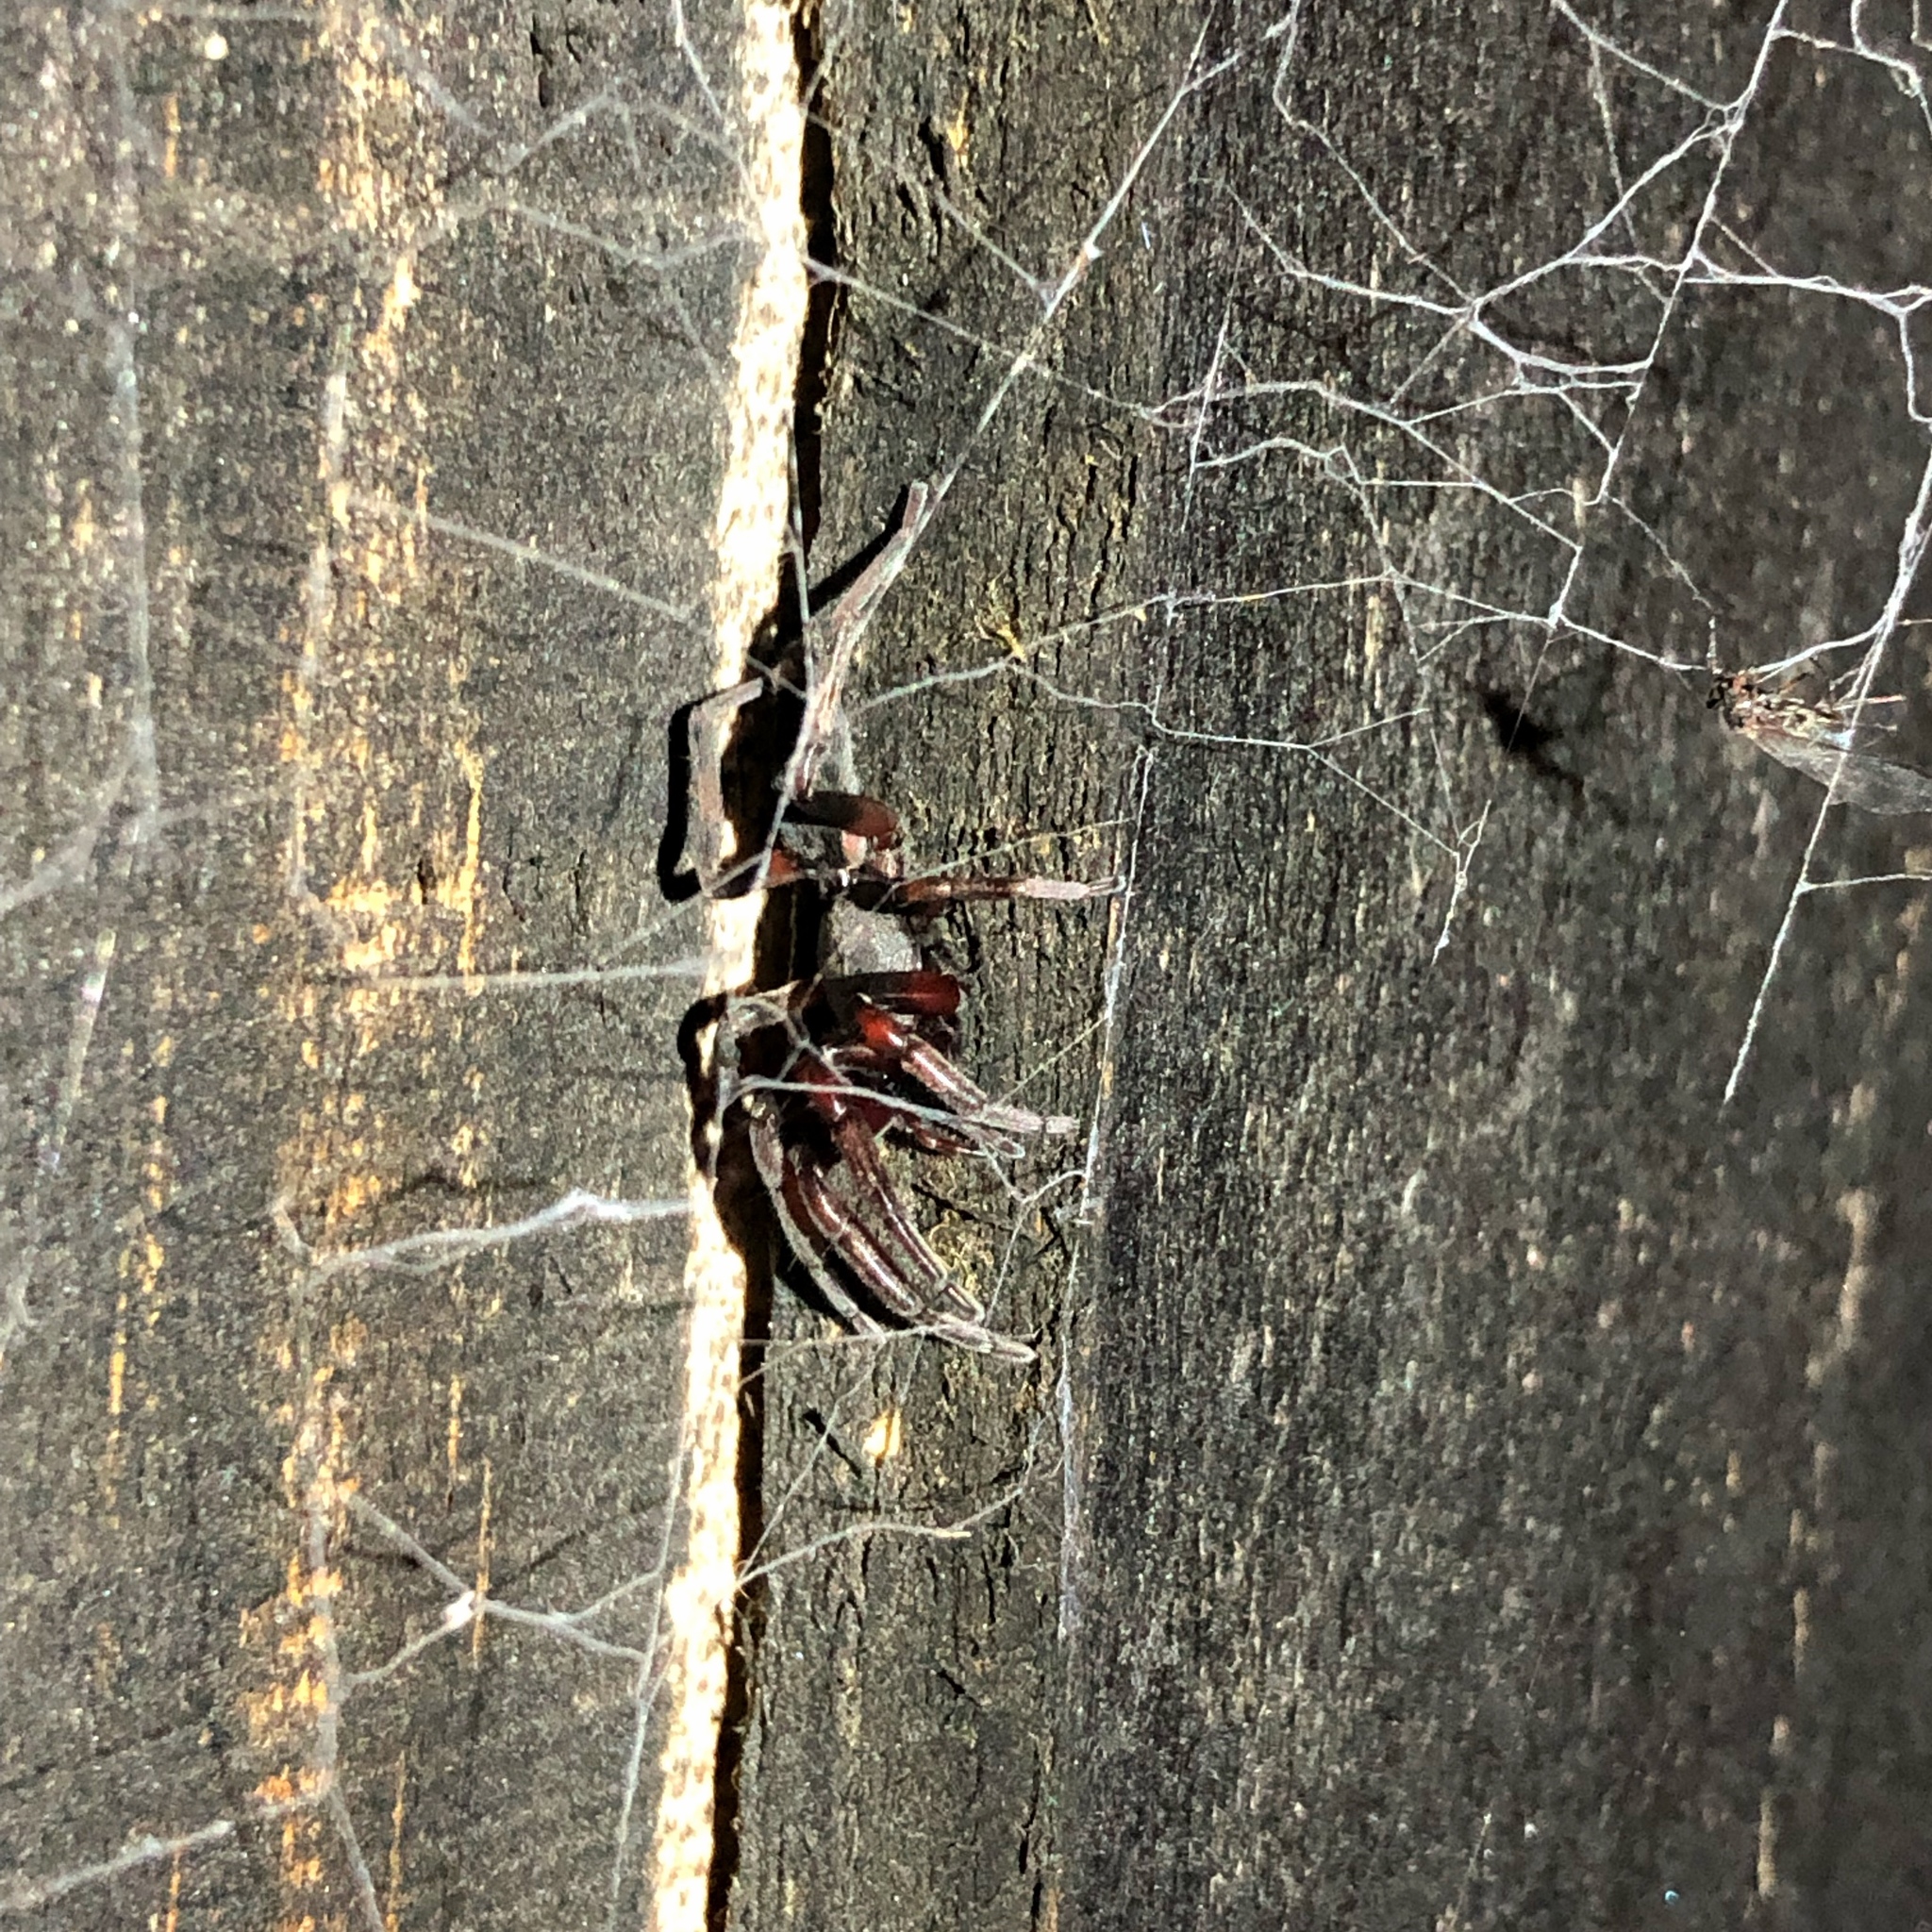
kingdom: Animalia
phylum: Arthropoda
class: Arachnida
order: Araneae
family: Lamponidae
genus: Lampona
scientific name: Lampona cylindrata
